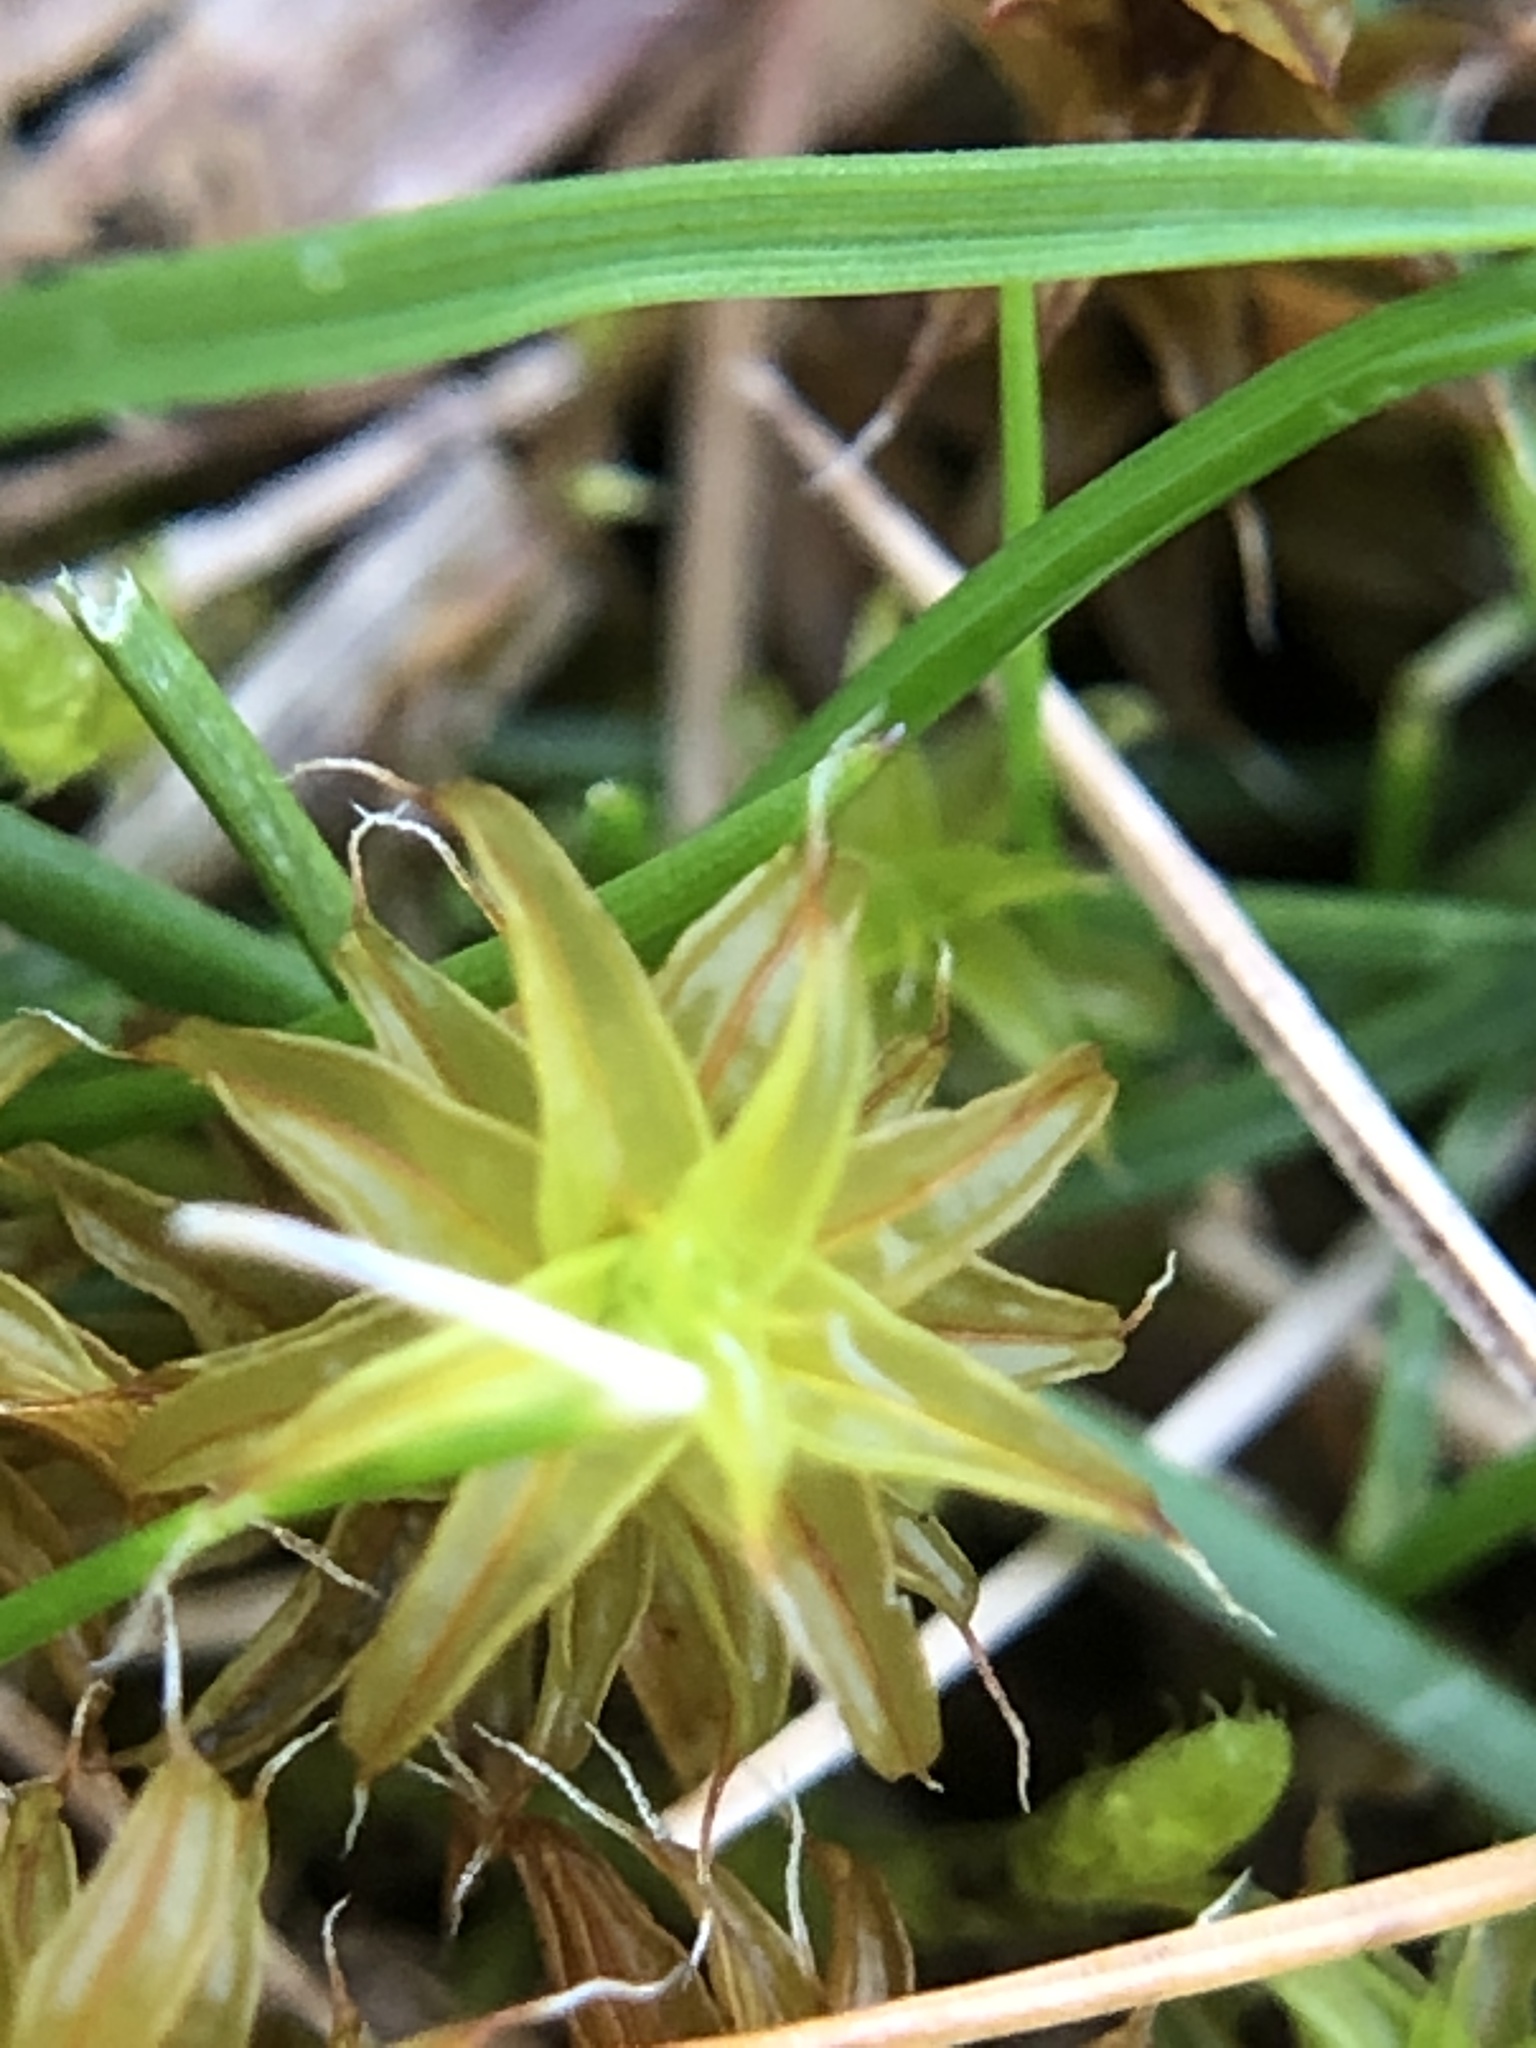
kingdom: Plantae
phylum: Bryophyta
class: Bryopsida
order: Pottiales
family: Pottiaceae
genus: Syntrichia
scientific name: Syntrichia ruralis
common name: Sidewalk screw moss
